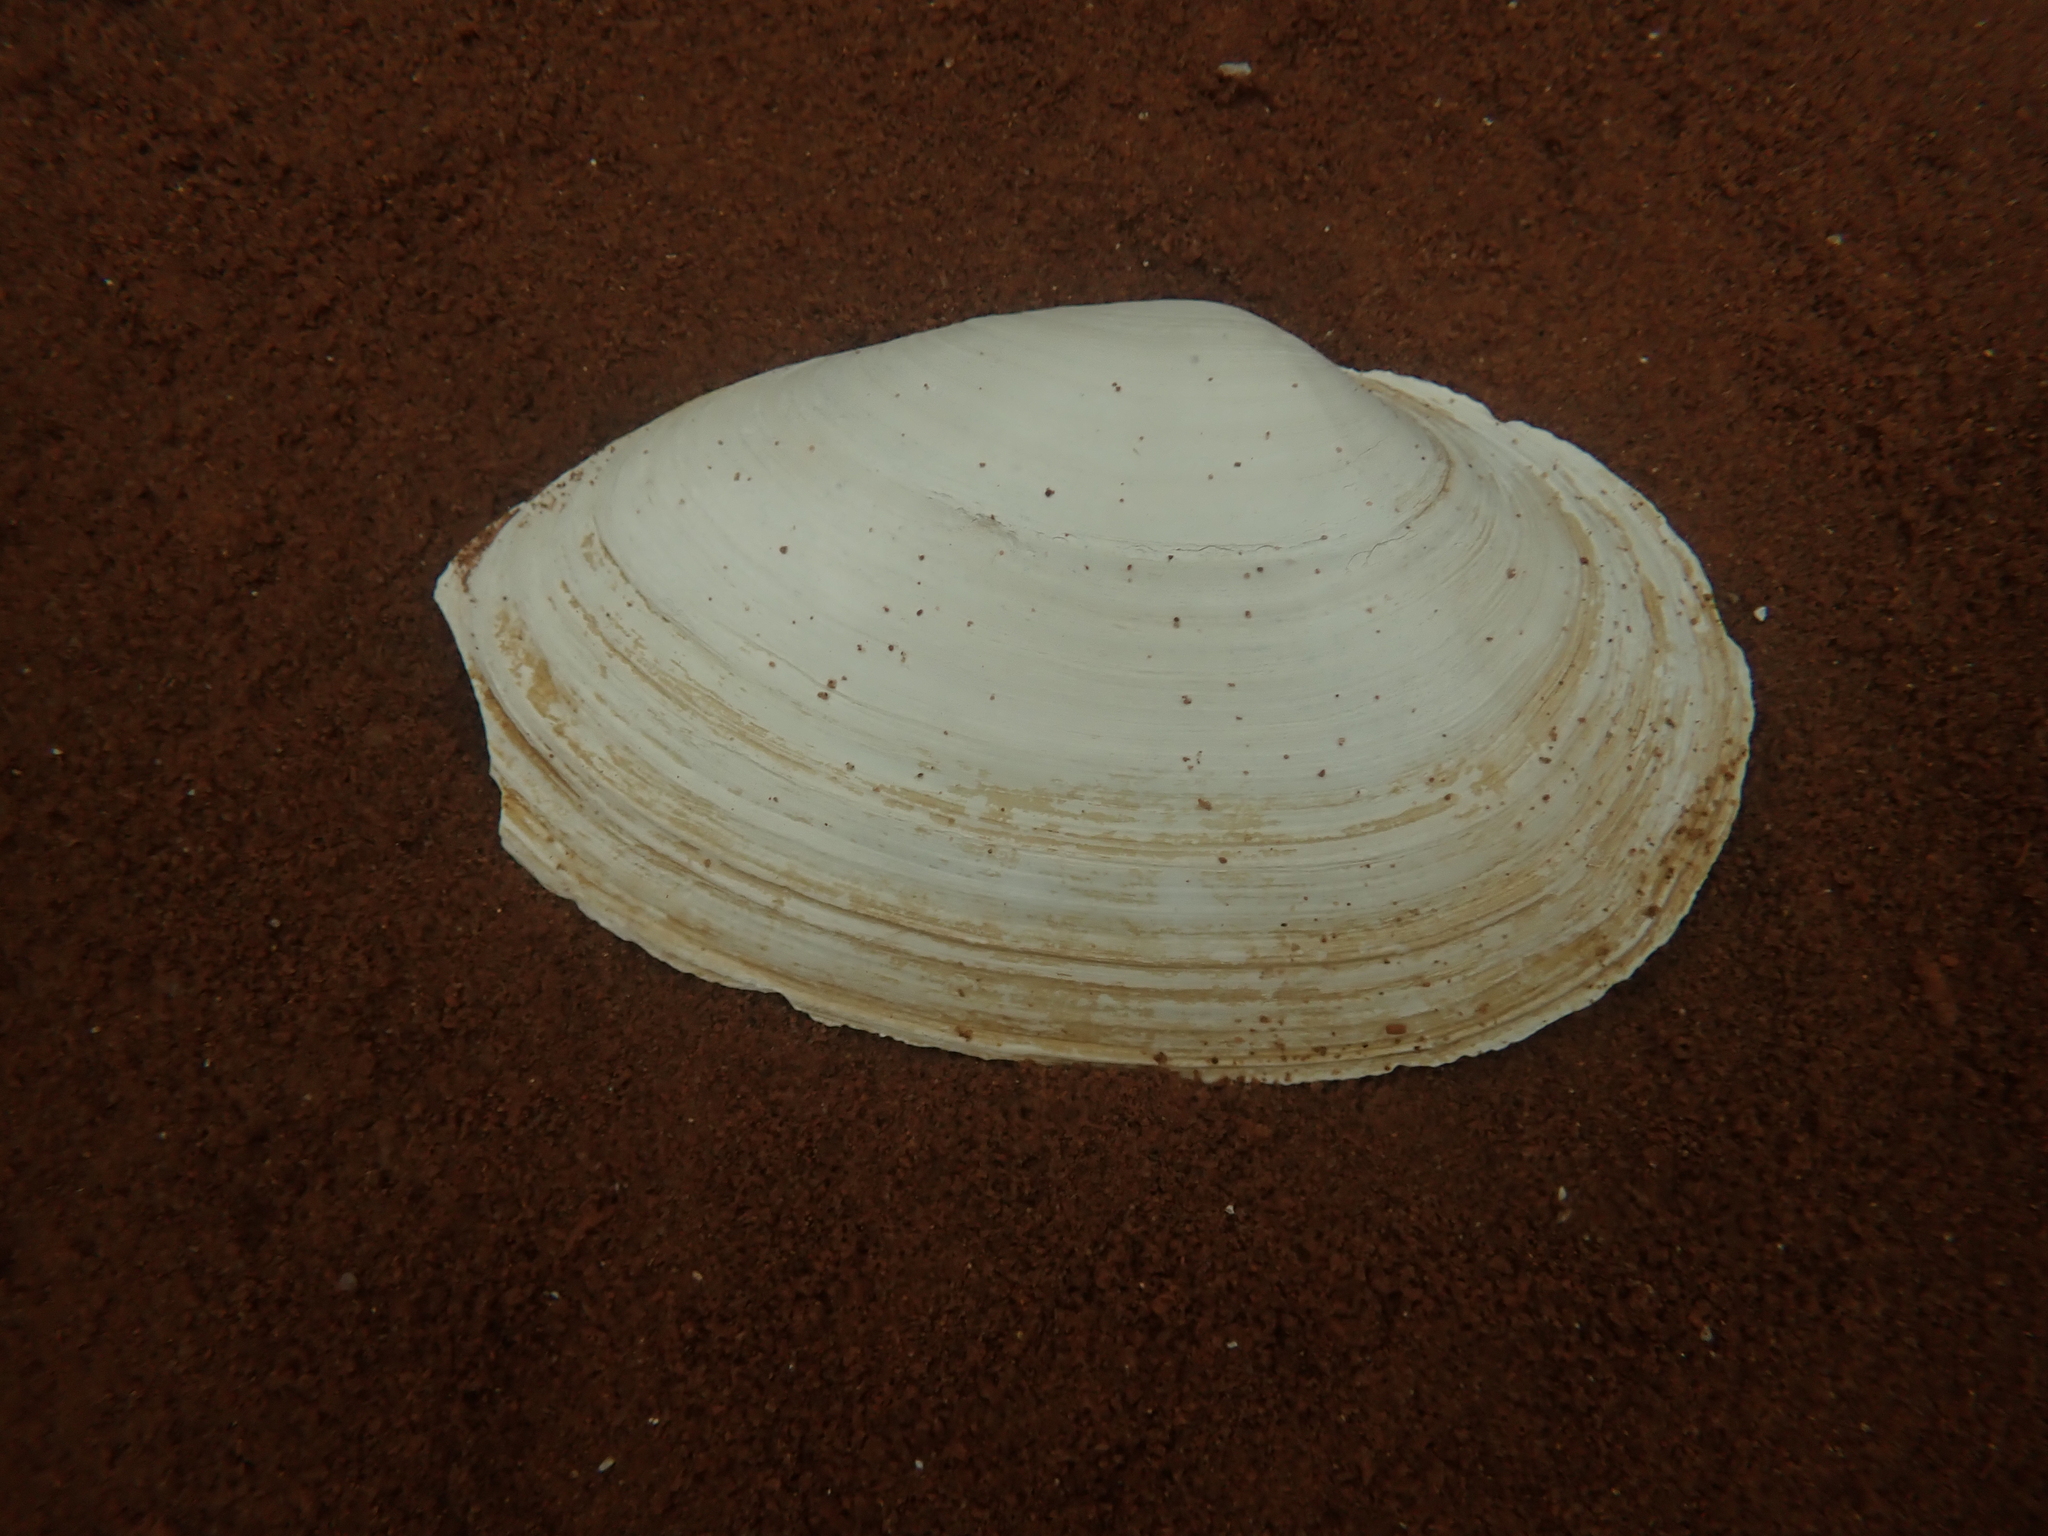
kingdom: Animalia
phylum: Mollusca
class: Bivalvia
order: Myida
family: Myidae
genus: Mya
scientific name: Mya arenaria
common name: Soft-shelled clam
